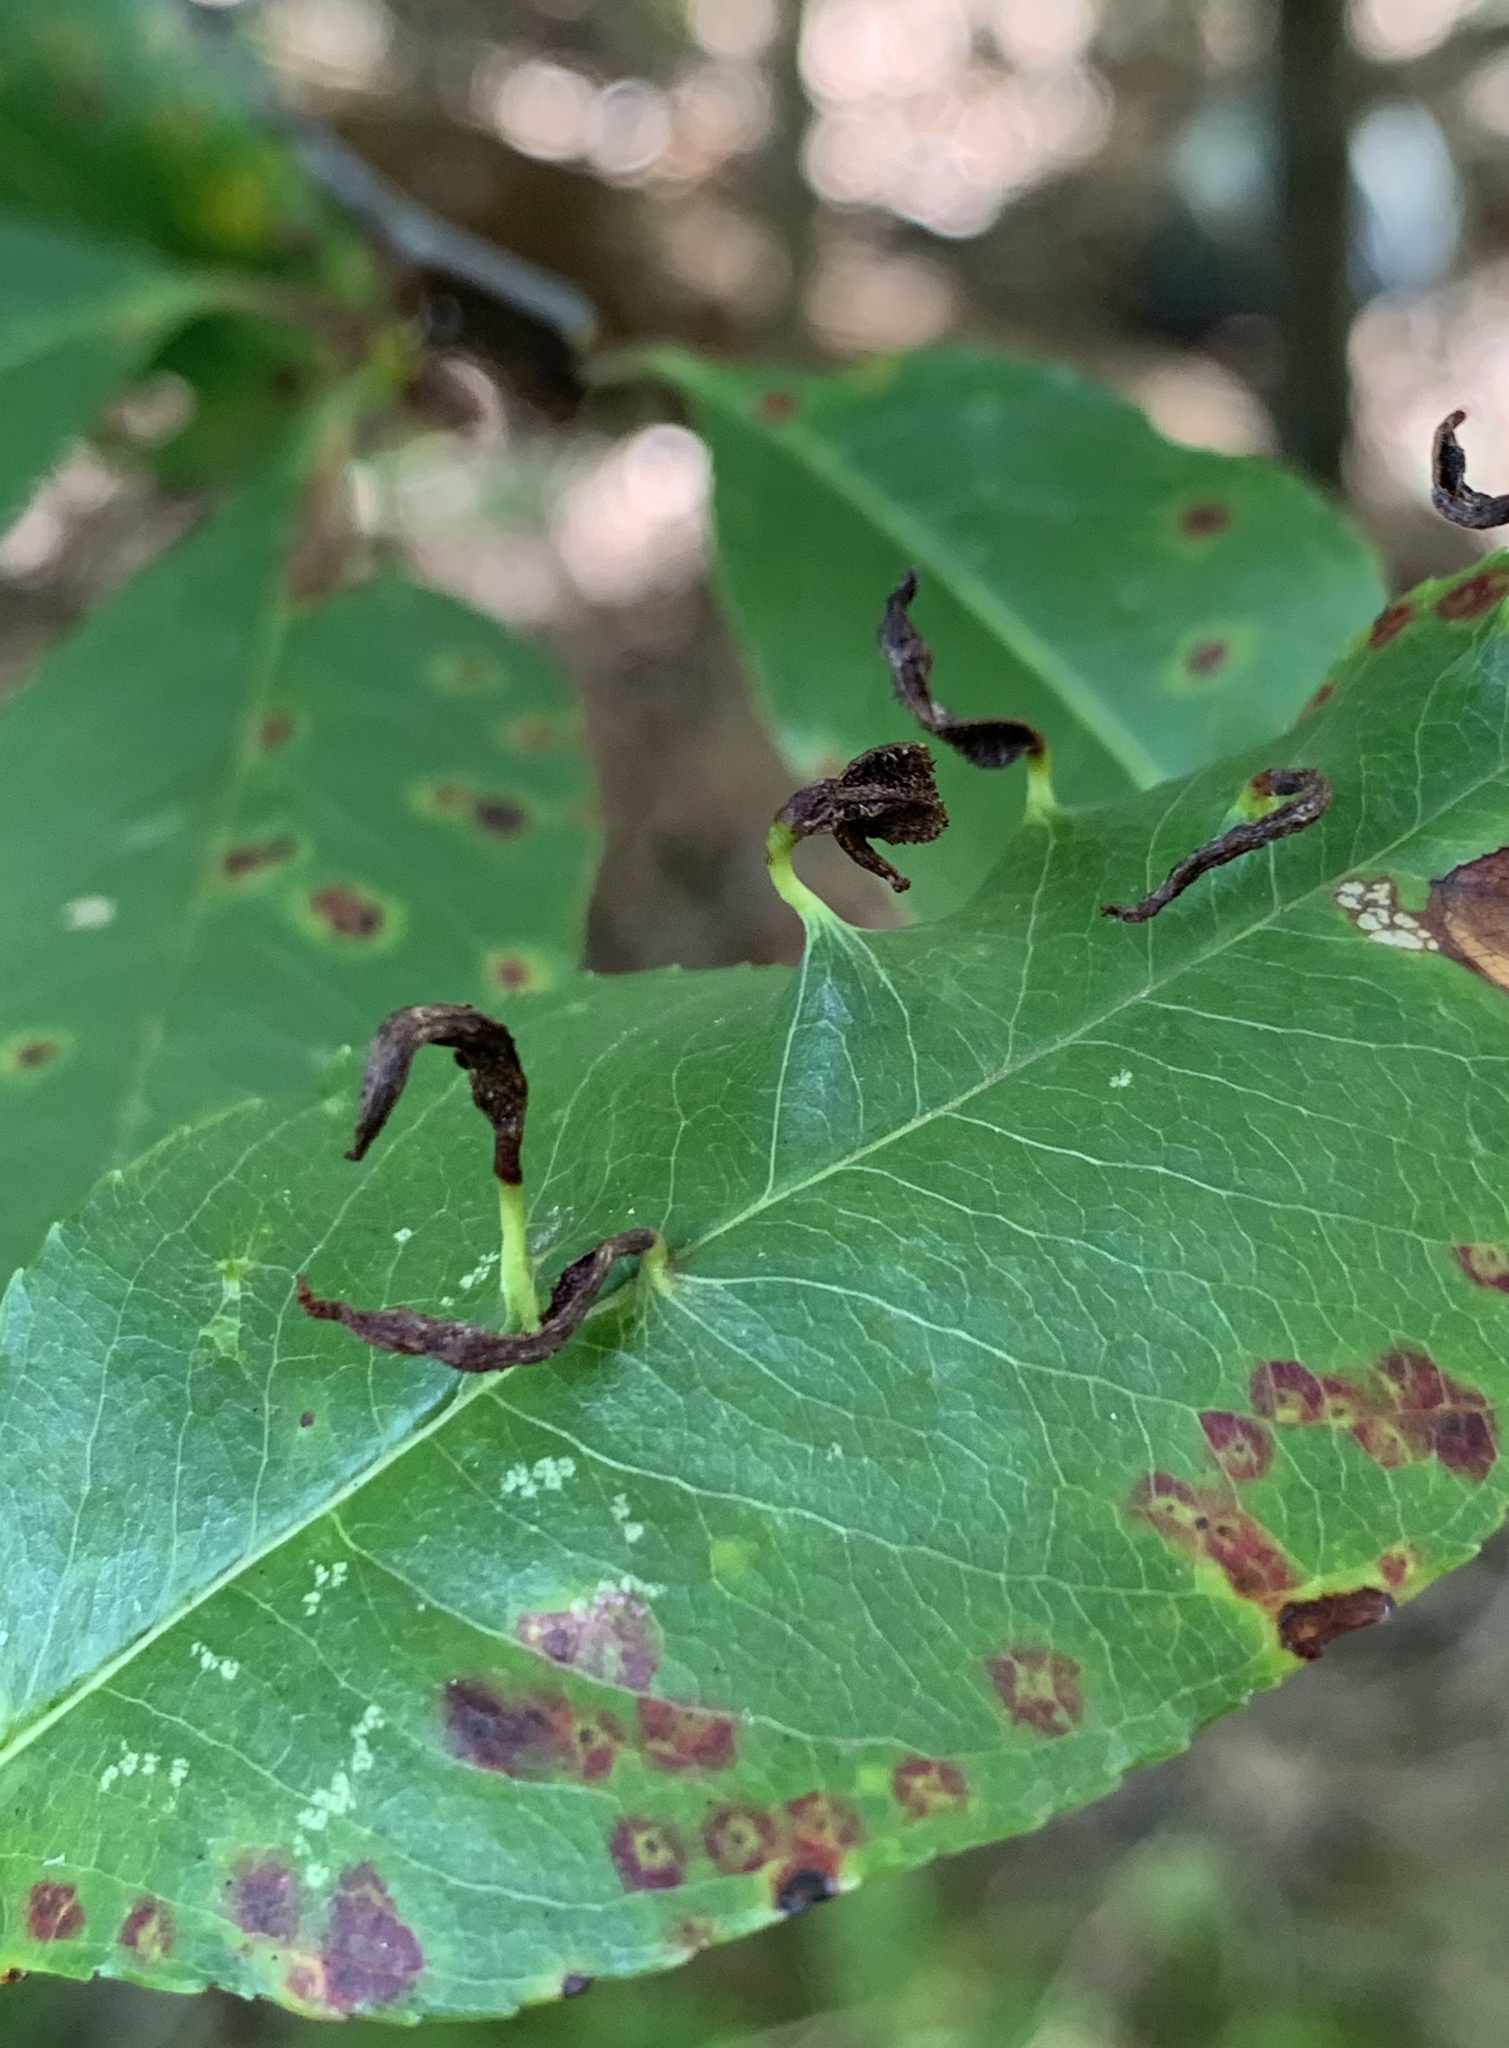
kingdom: Animalia
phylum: Arthropoda
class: Arachnida
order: Trombidiformes
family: Eriophyidae
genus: Eriophyes
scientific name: Eriophyes
